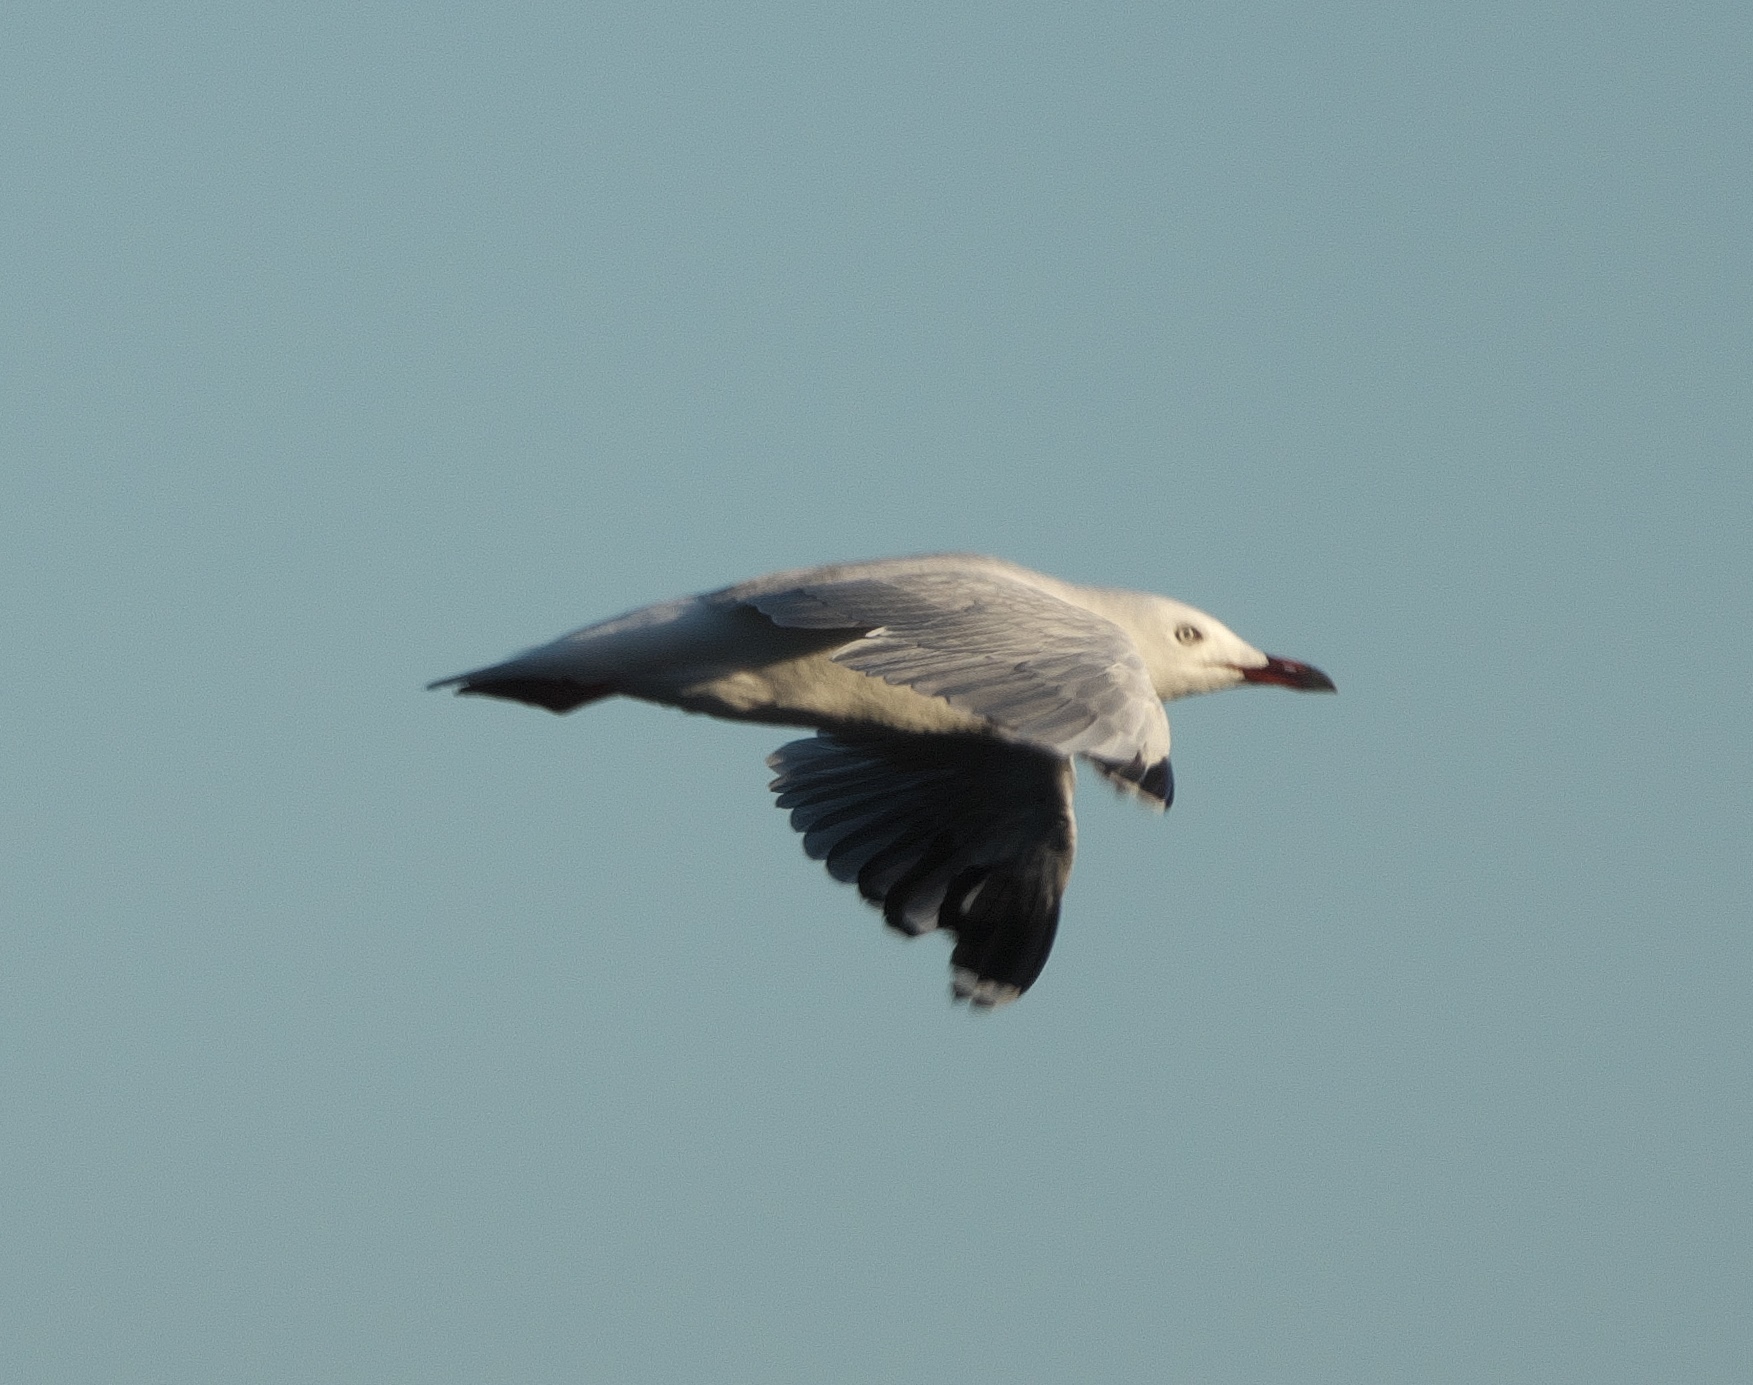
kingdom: Animalia
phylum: Chordata
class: Aves
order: Charadriiformes
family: Laridae
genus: Chroicocephalus
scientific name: Chroicocephalus novaehollandiae
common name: Silver gull
